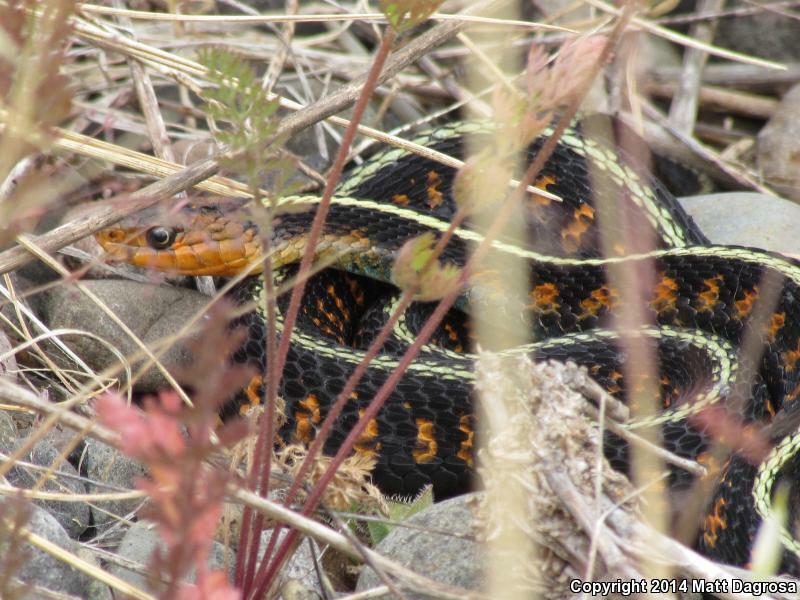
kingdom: Animalia
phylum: Chordata
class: Squamata
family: Colubridae
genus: Thamnophis
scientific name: Thamnophis sirtalis
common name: Common garter snake
